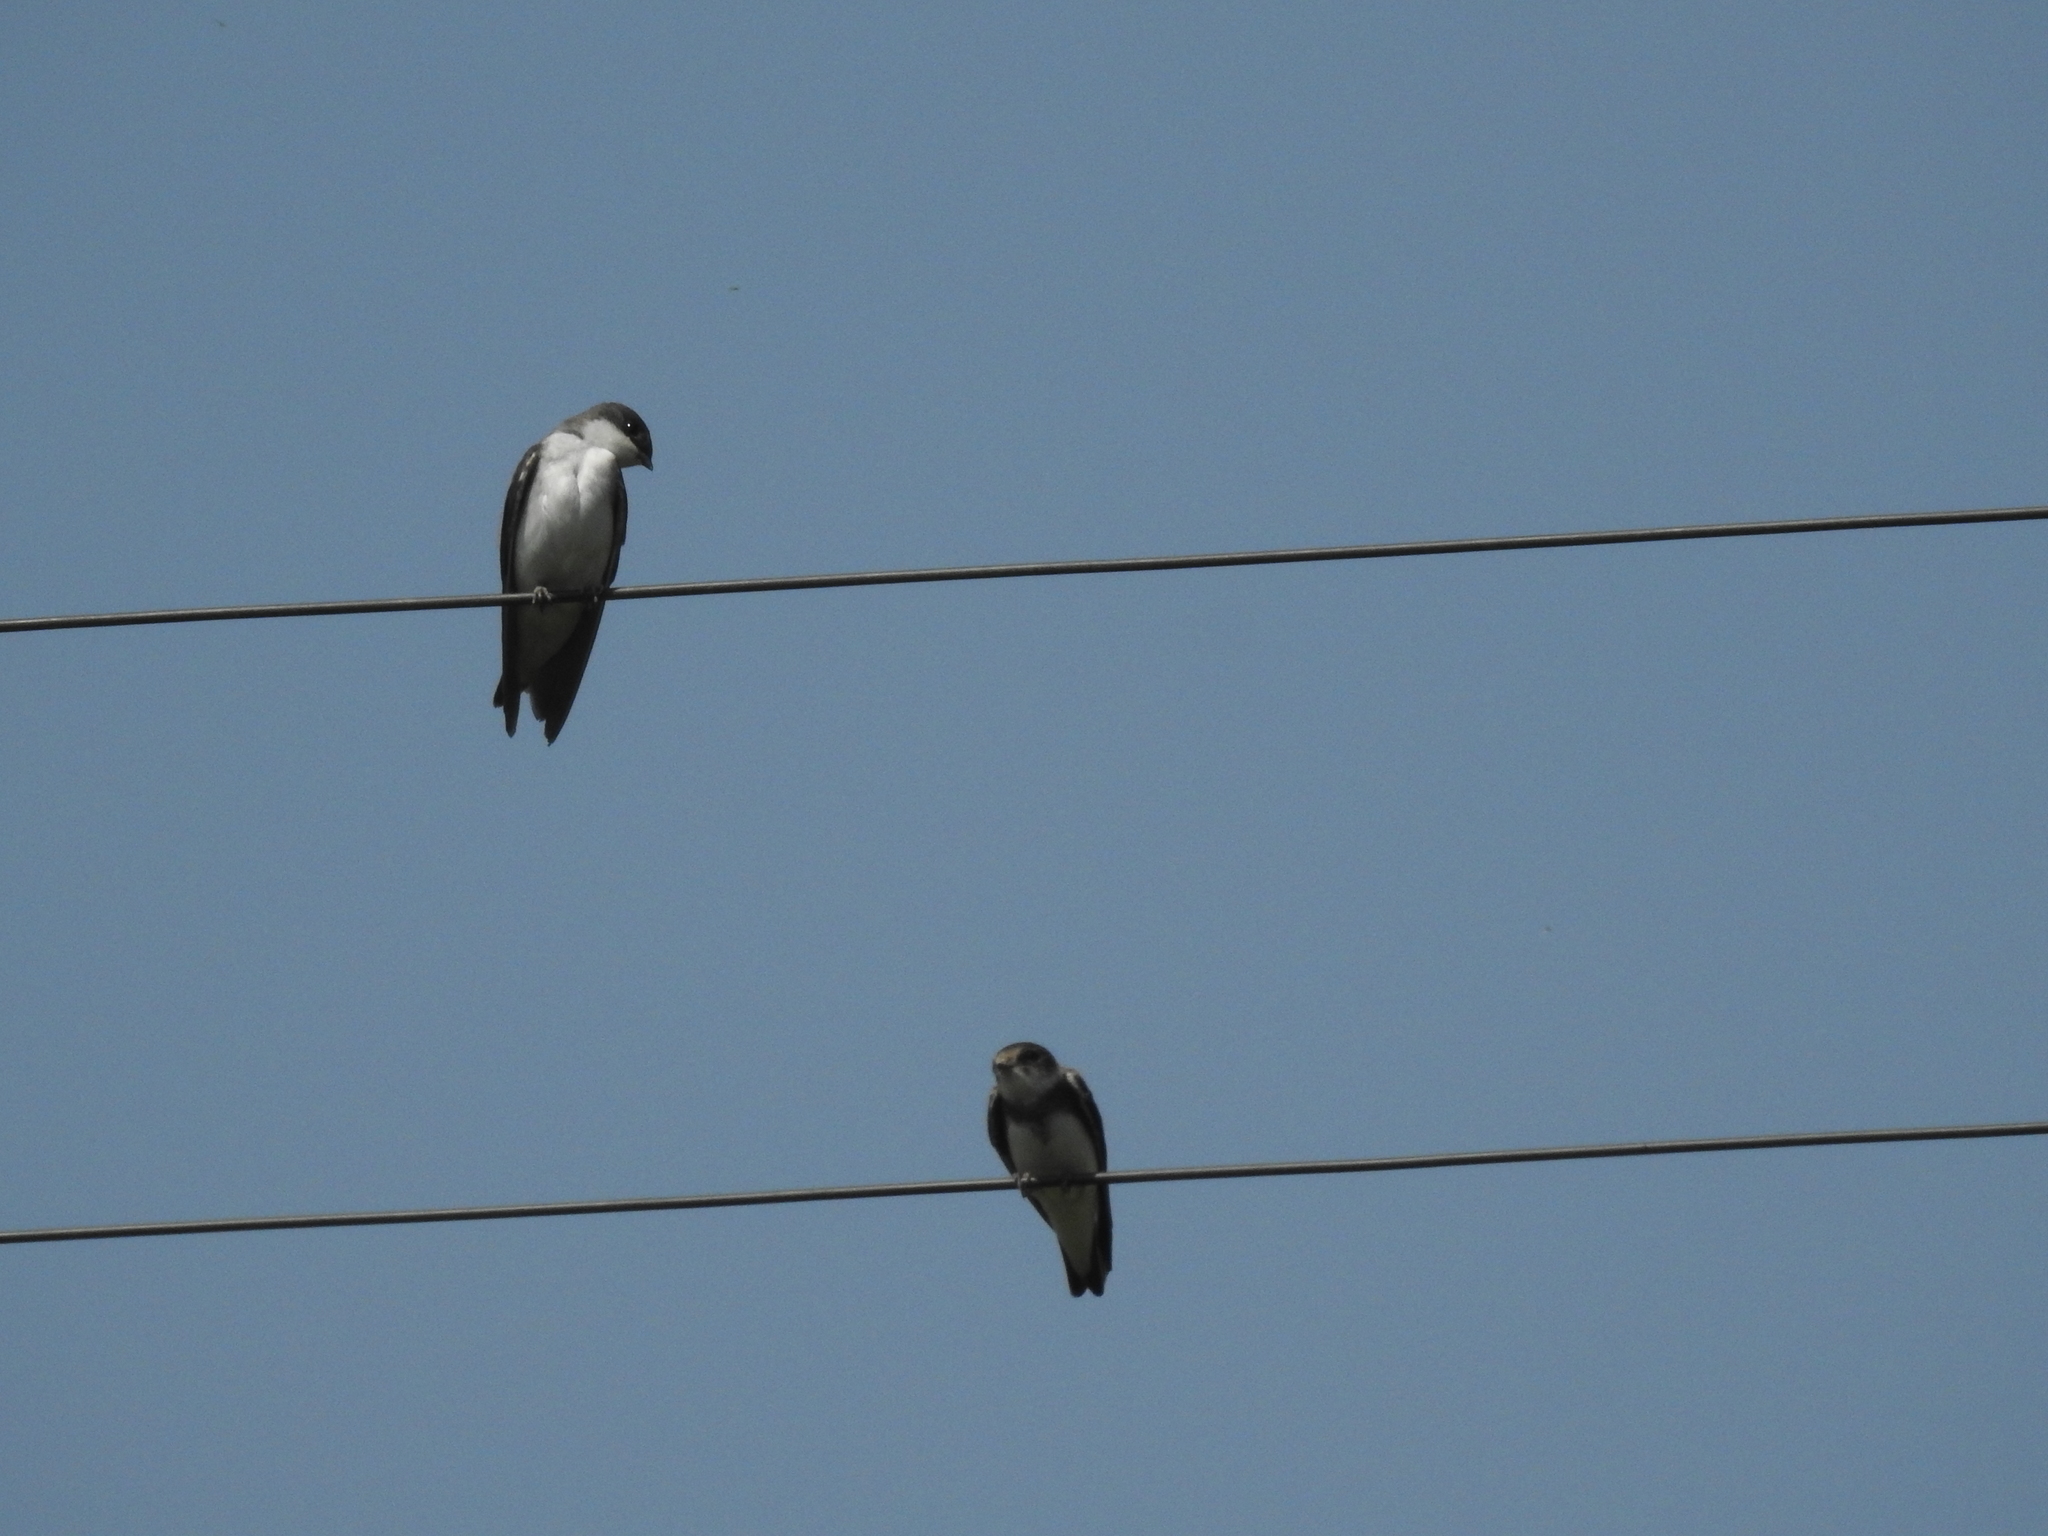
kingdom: Animalia
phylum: Chordata
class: Aves
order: Passeriformes
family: Hirundinidae
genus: Tachycineta
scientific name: Tachycineta bicolor
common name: Tree swallow
